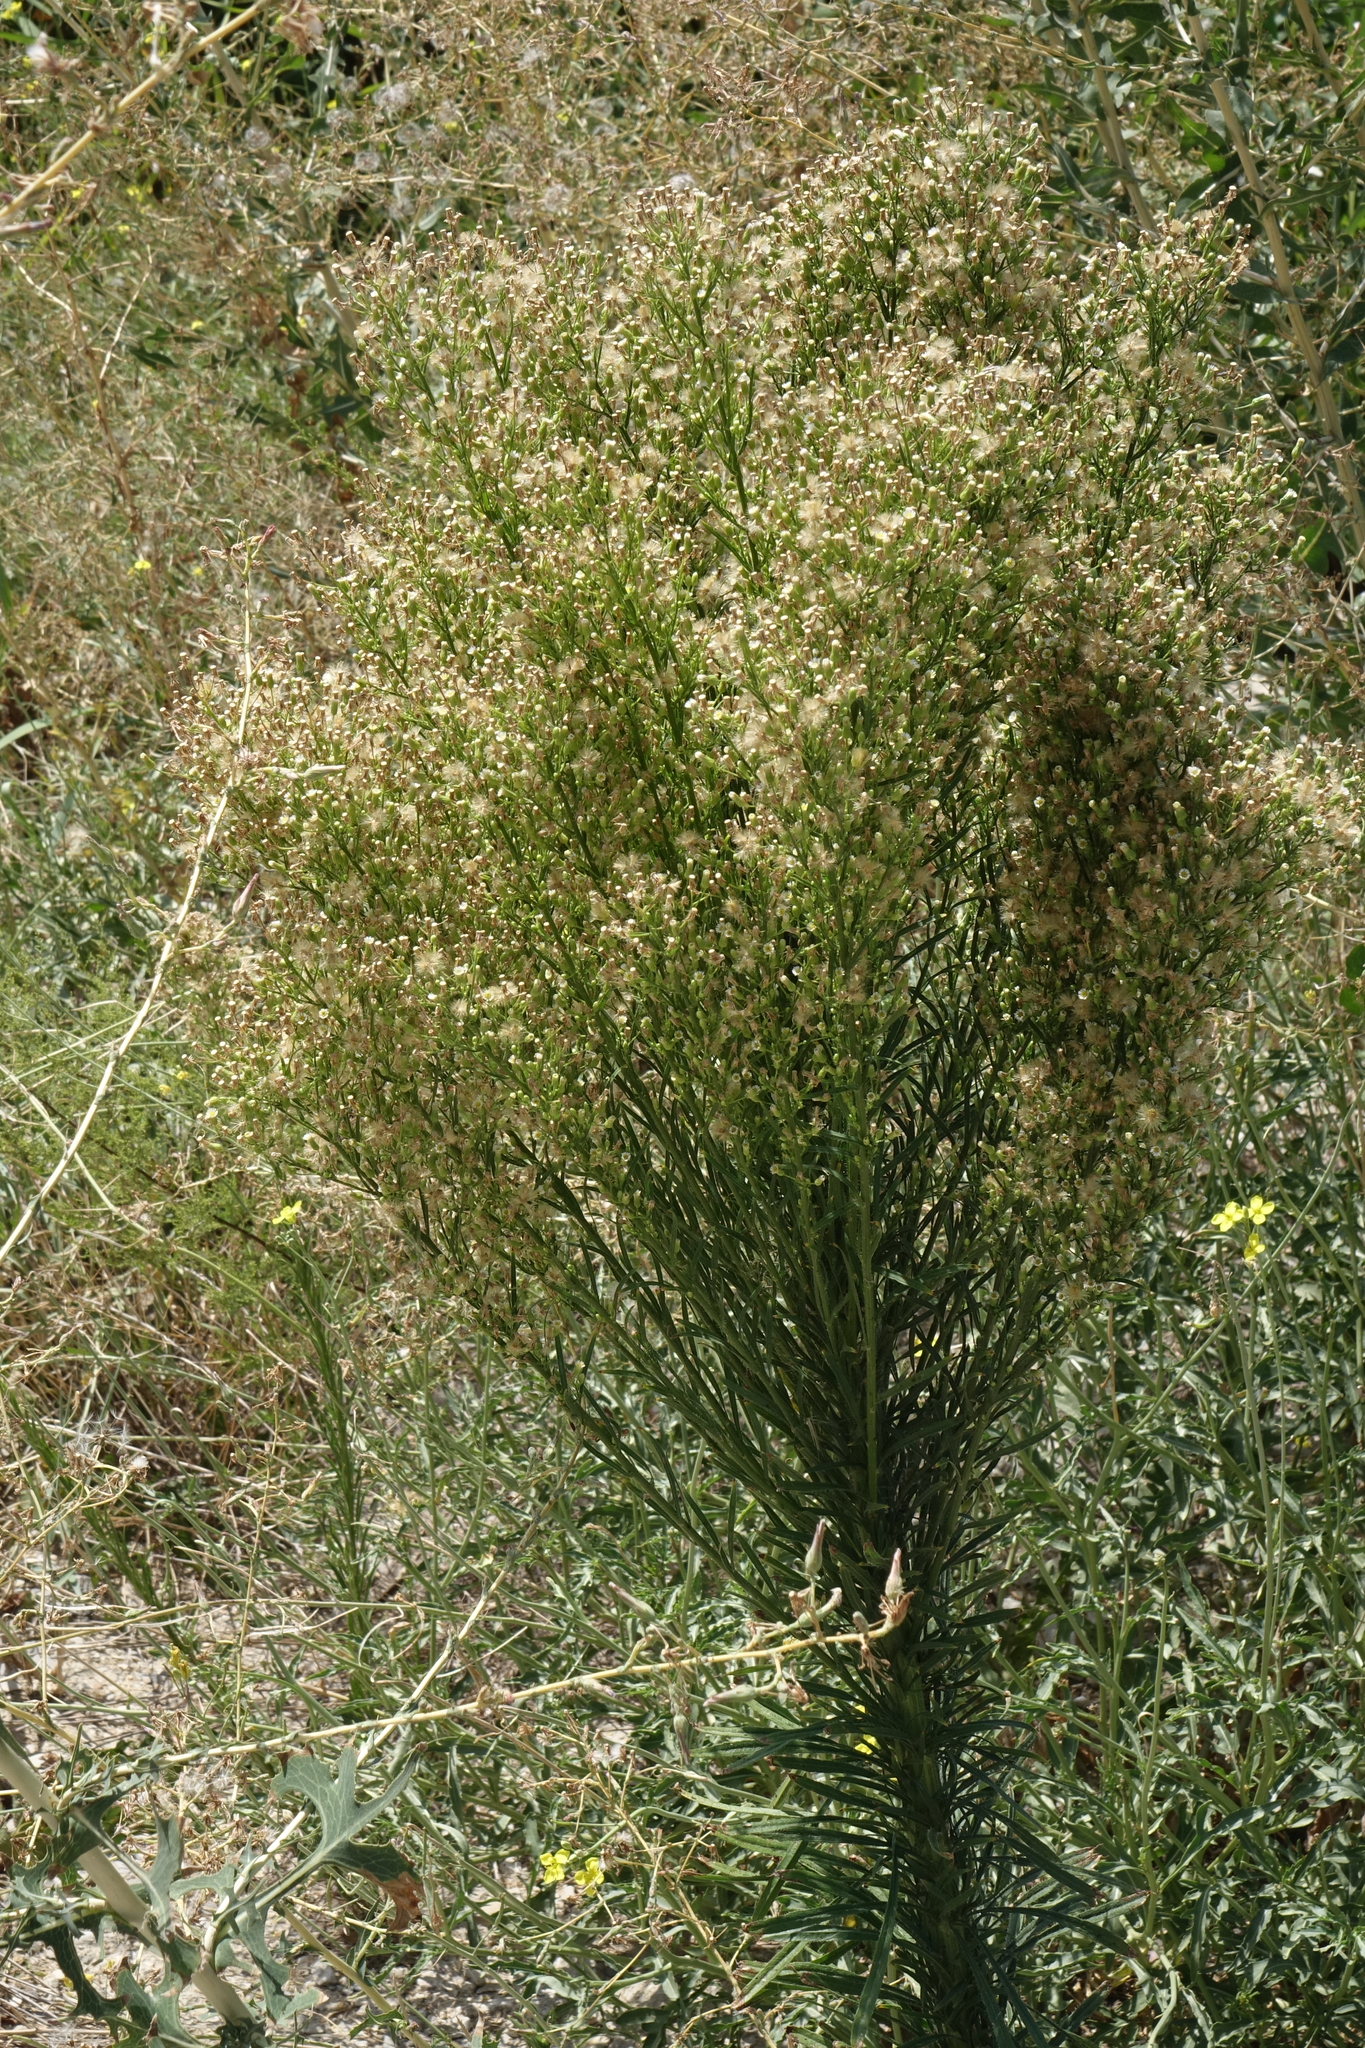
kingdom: Plantae
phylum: Tracheophyta
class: Magnoliopsida
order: Asterales
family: Asteraceae
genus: Erigeron
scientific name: Erigeron canadensis
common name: Canadian fleabane
